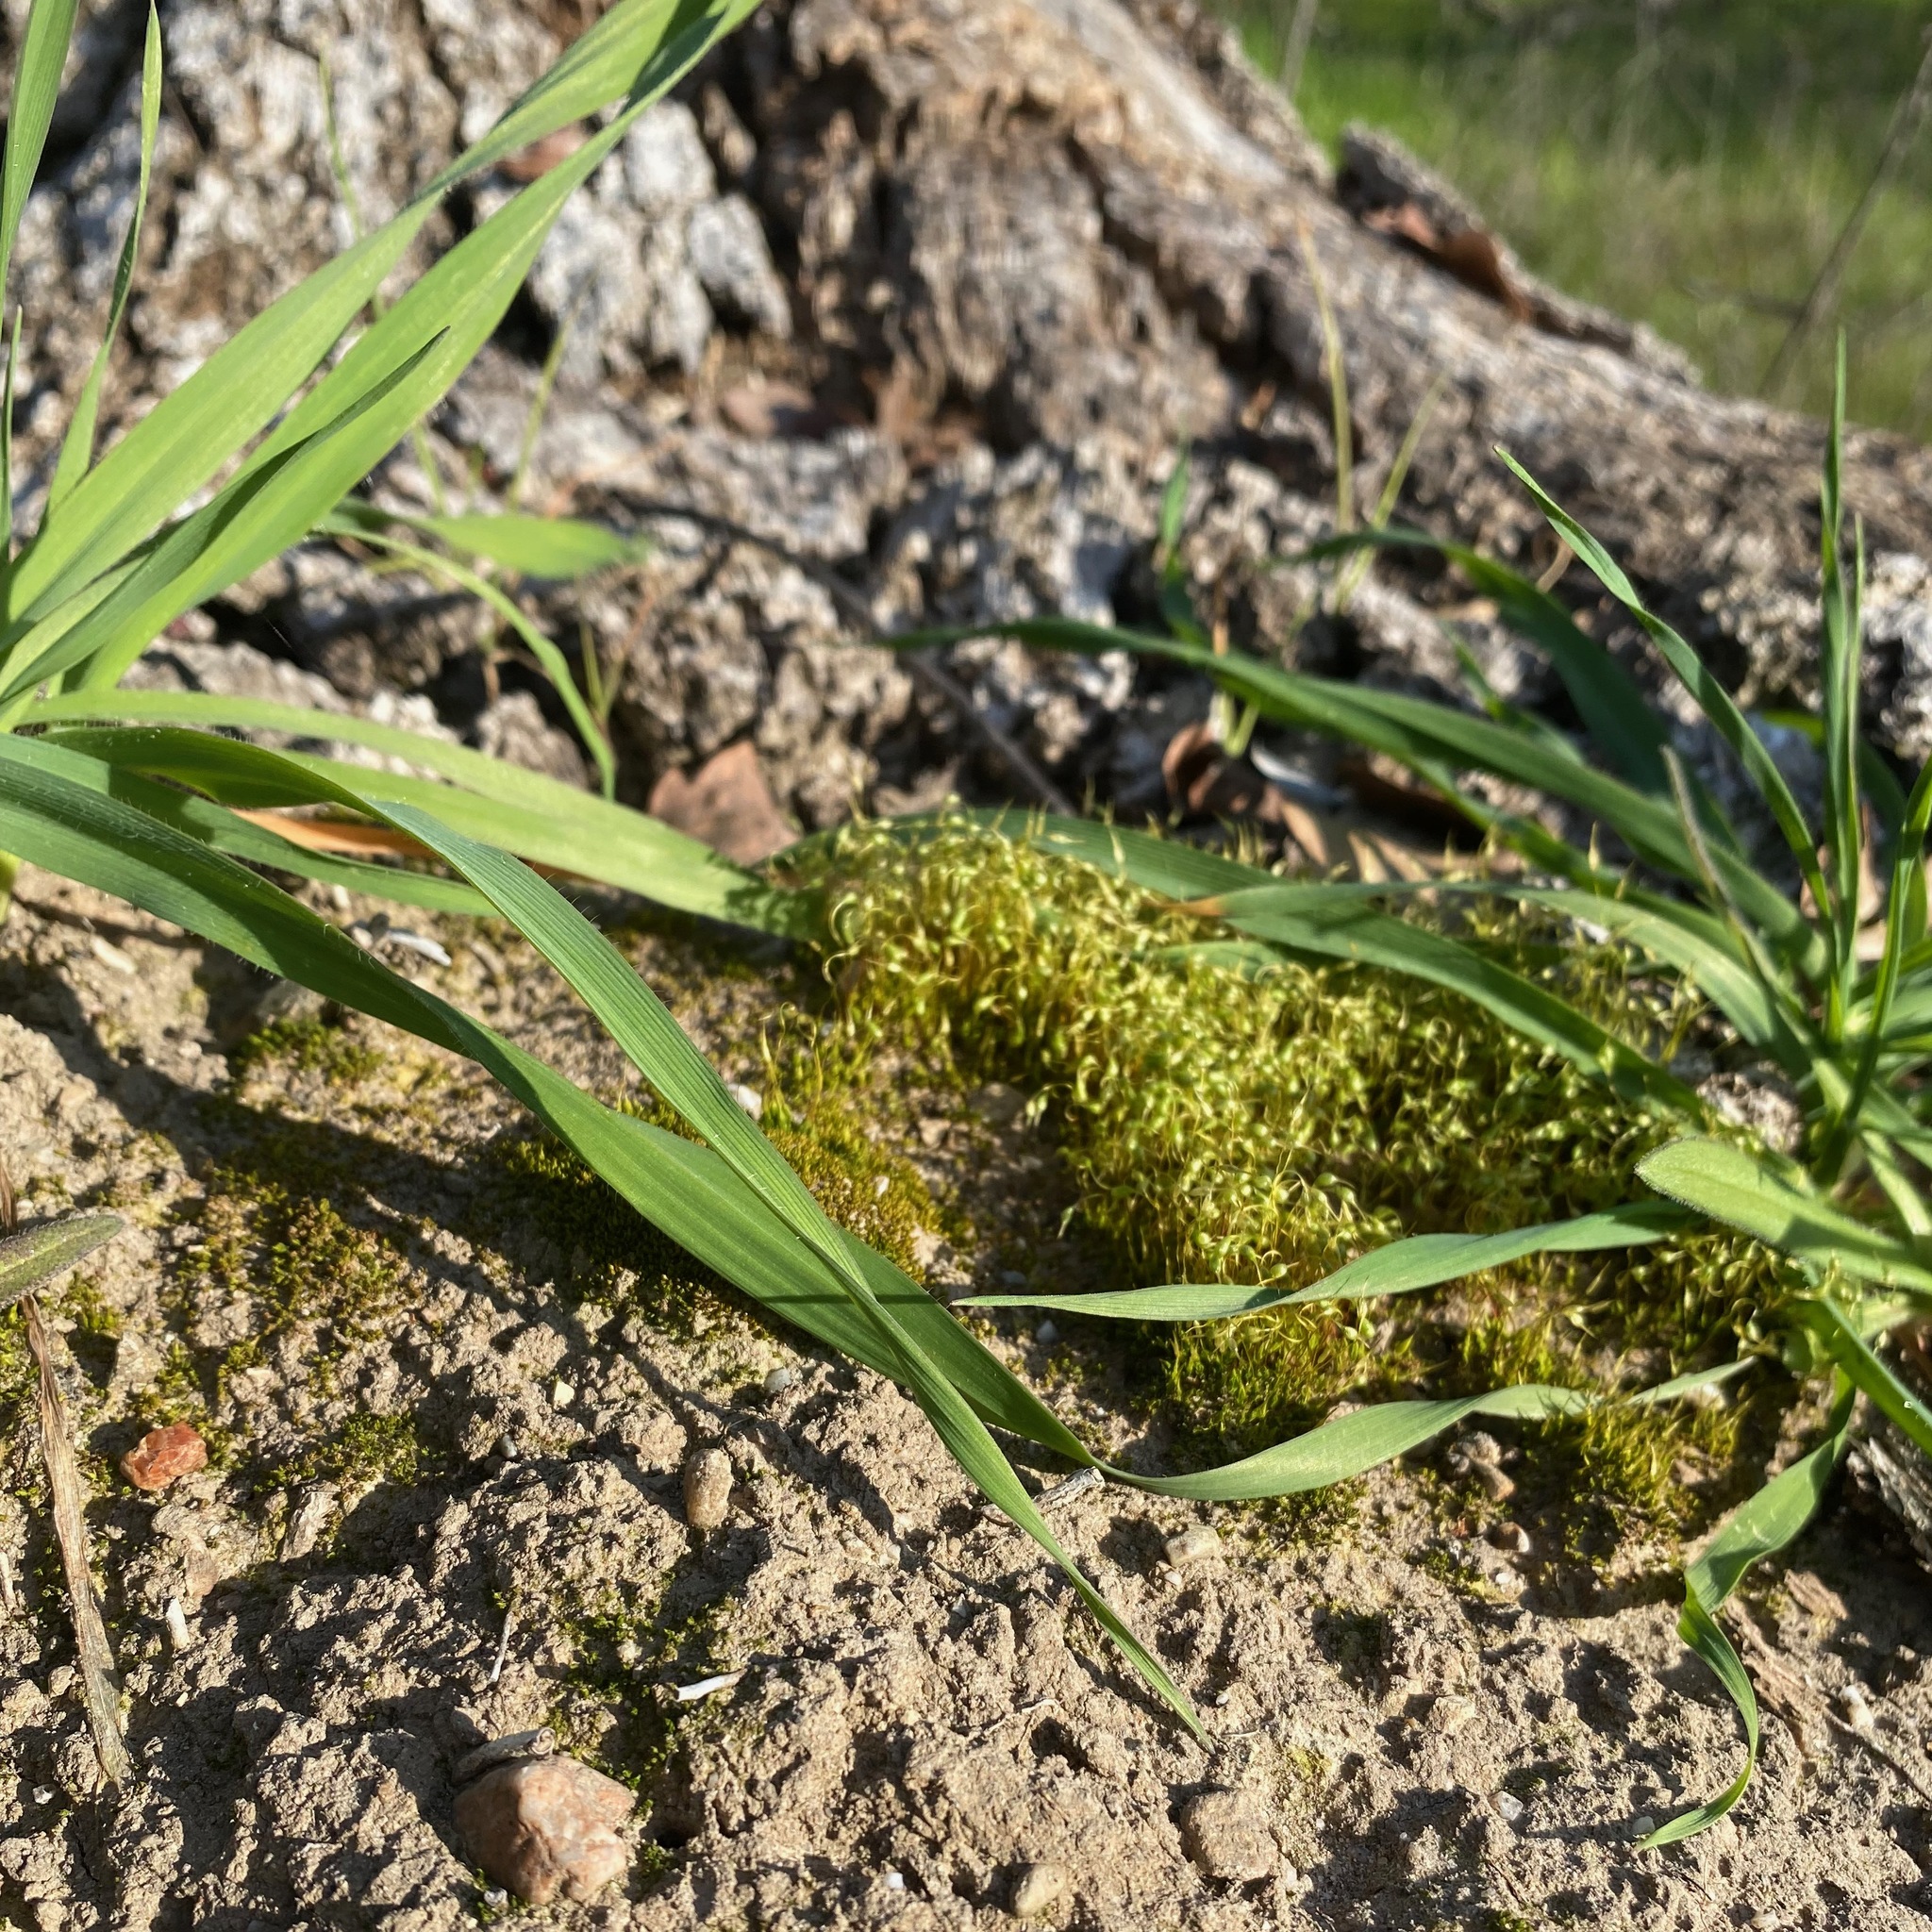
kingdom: Plantae
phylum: Bryophyta
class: Bryopsida
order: Funariales
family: Funariaceae
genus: Funaria
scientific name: Funaria hygrometrica
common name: Common cord moss
